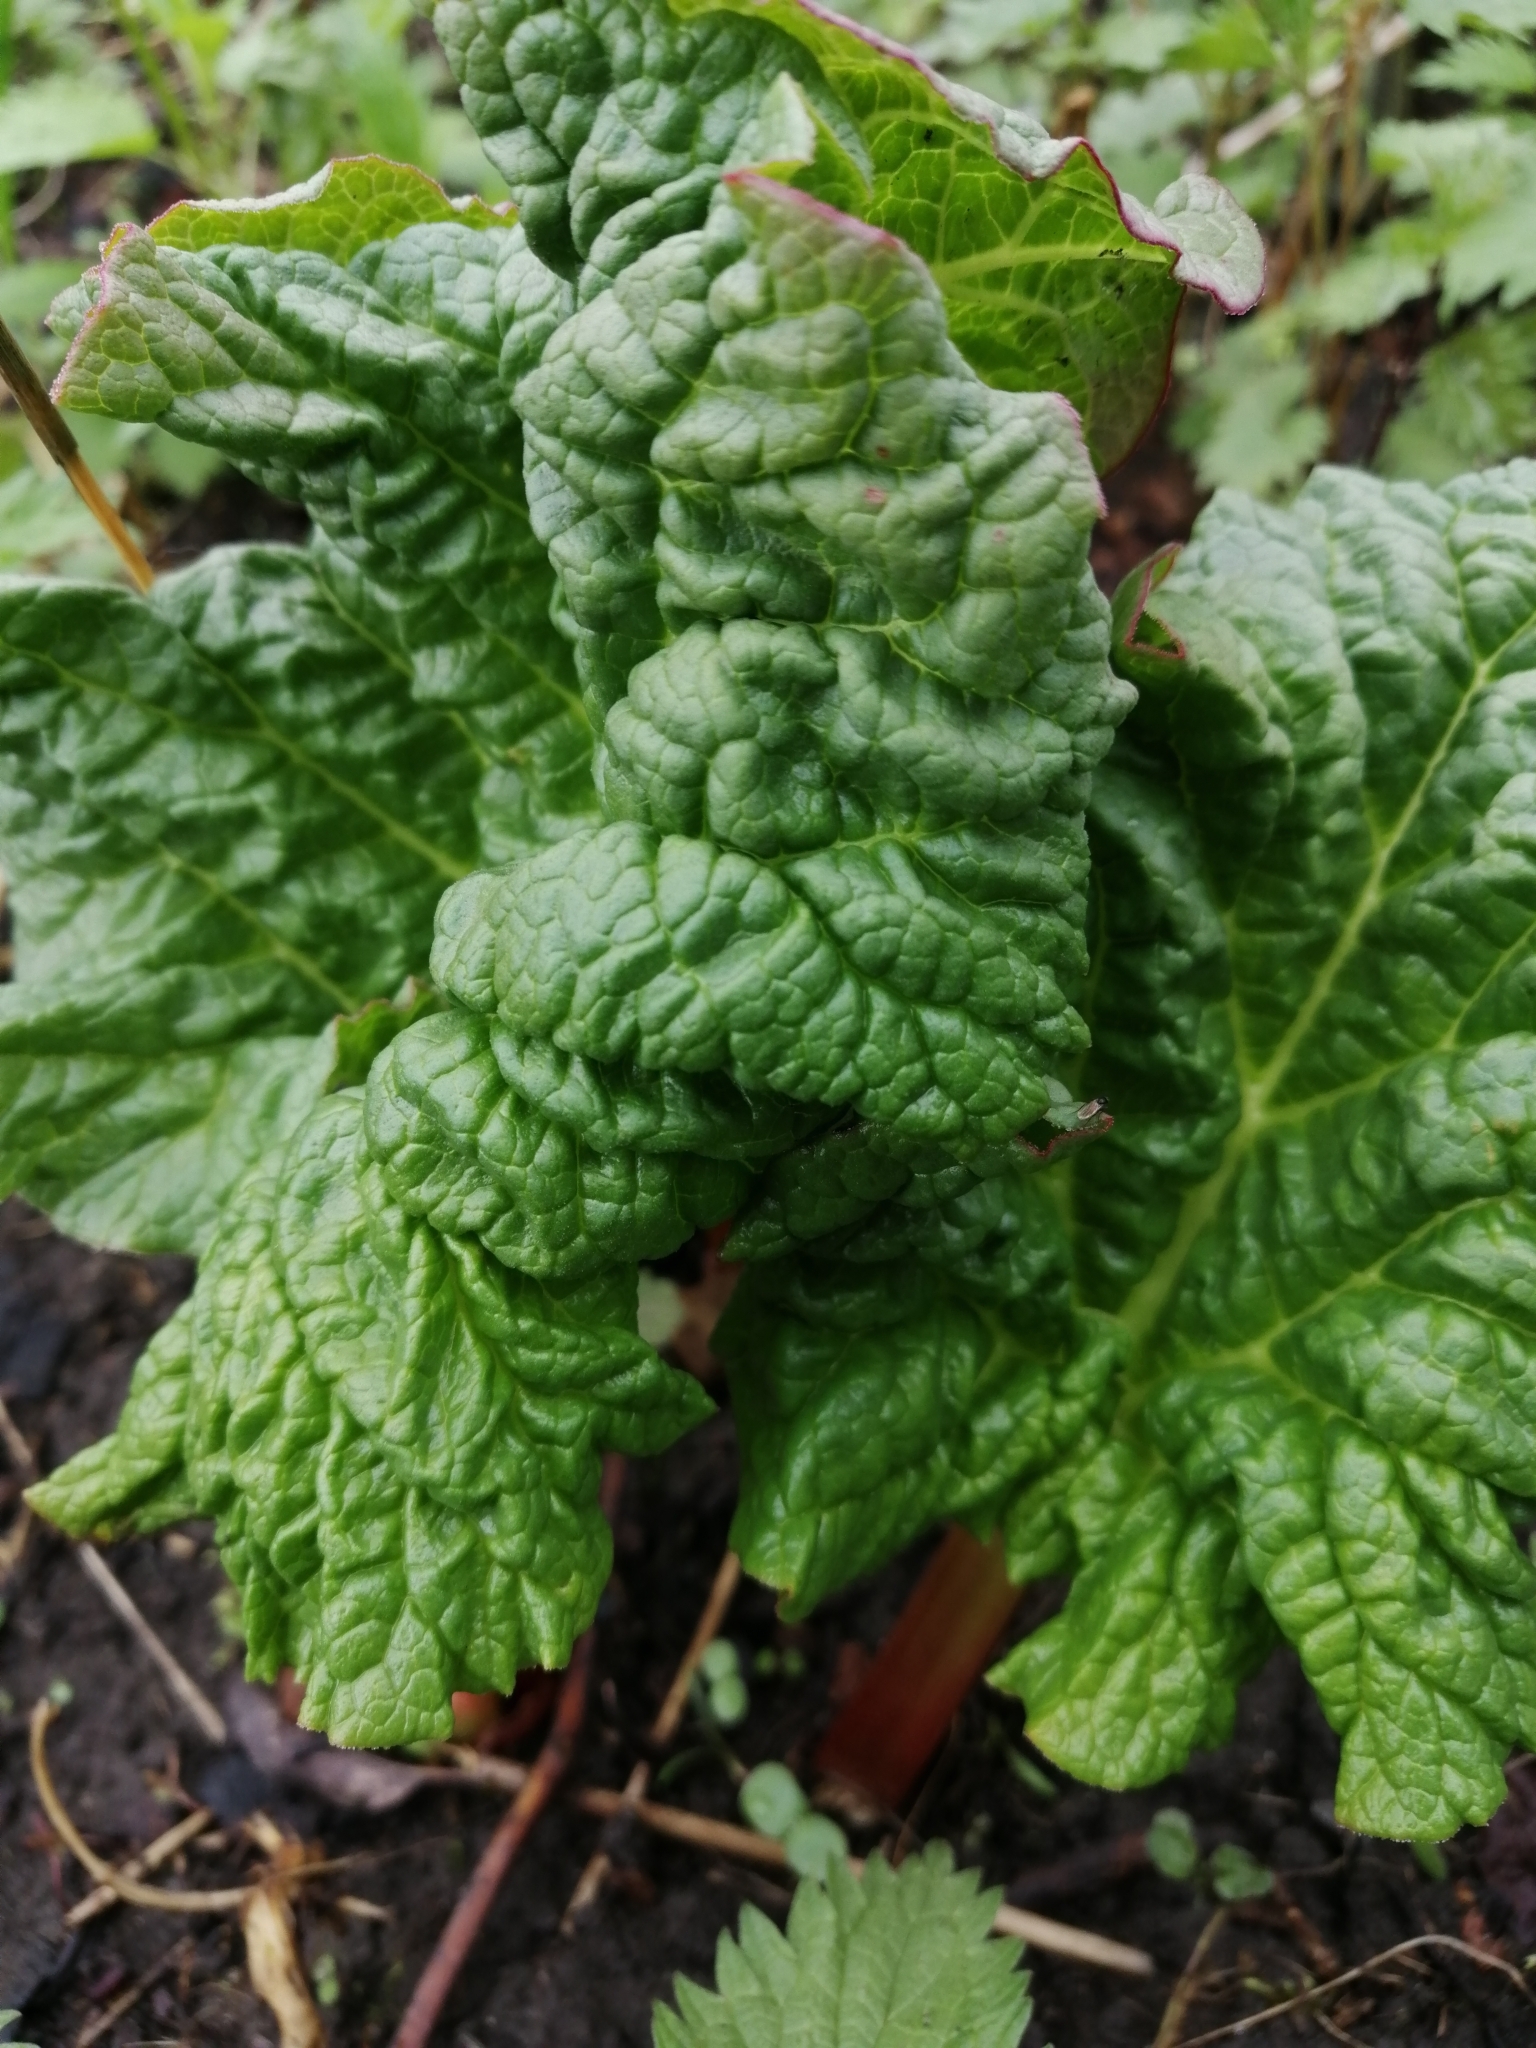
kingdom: Plantae
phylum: Tracheophyta
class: Magnoliopsida
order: Caryophyllales
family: Polygonaceae
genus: Rheum
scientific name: Rheum rhabarbarum
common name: Garden rhubarb
